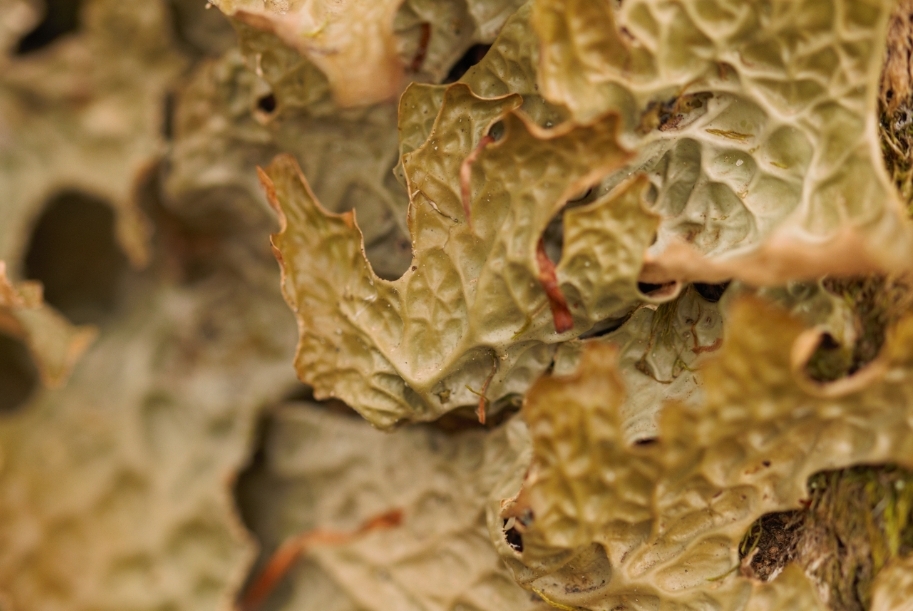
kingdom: Fungi
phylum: Ascomycota
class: Lecanoromycetes
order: Peltigerales
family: Lobariaceae
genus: Lobaria
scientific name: Lobaria pulmonaria
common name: Lungwort
